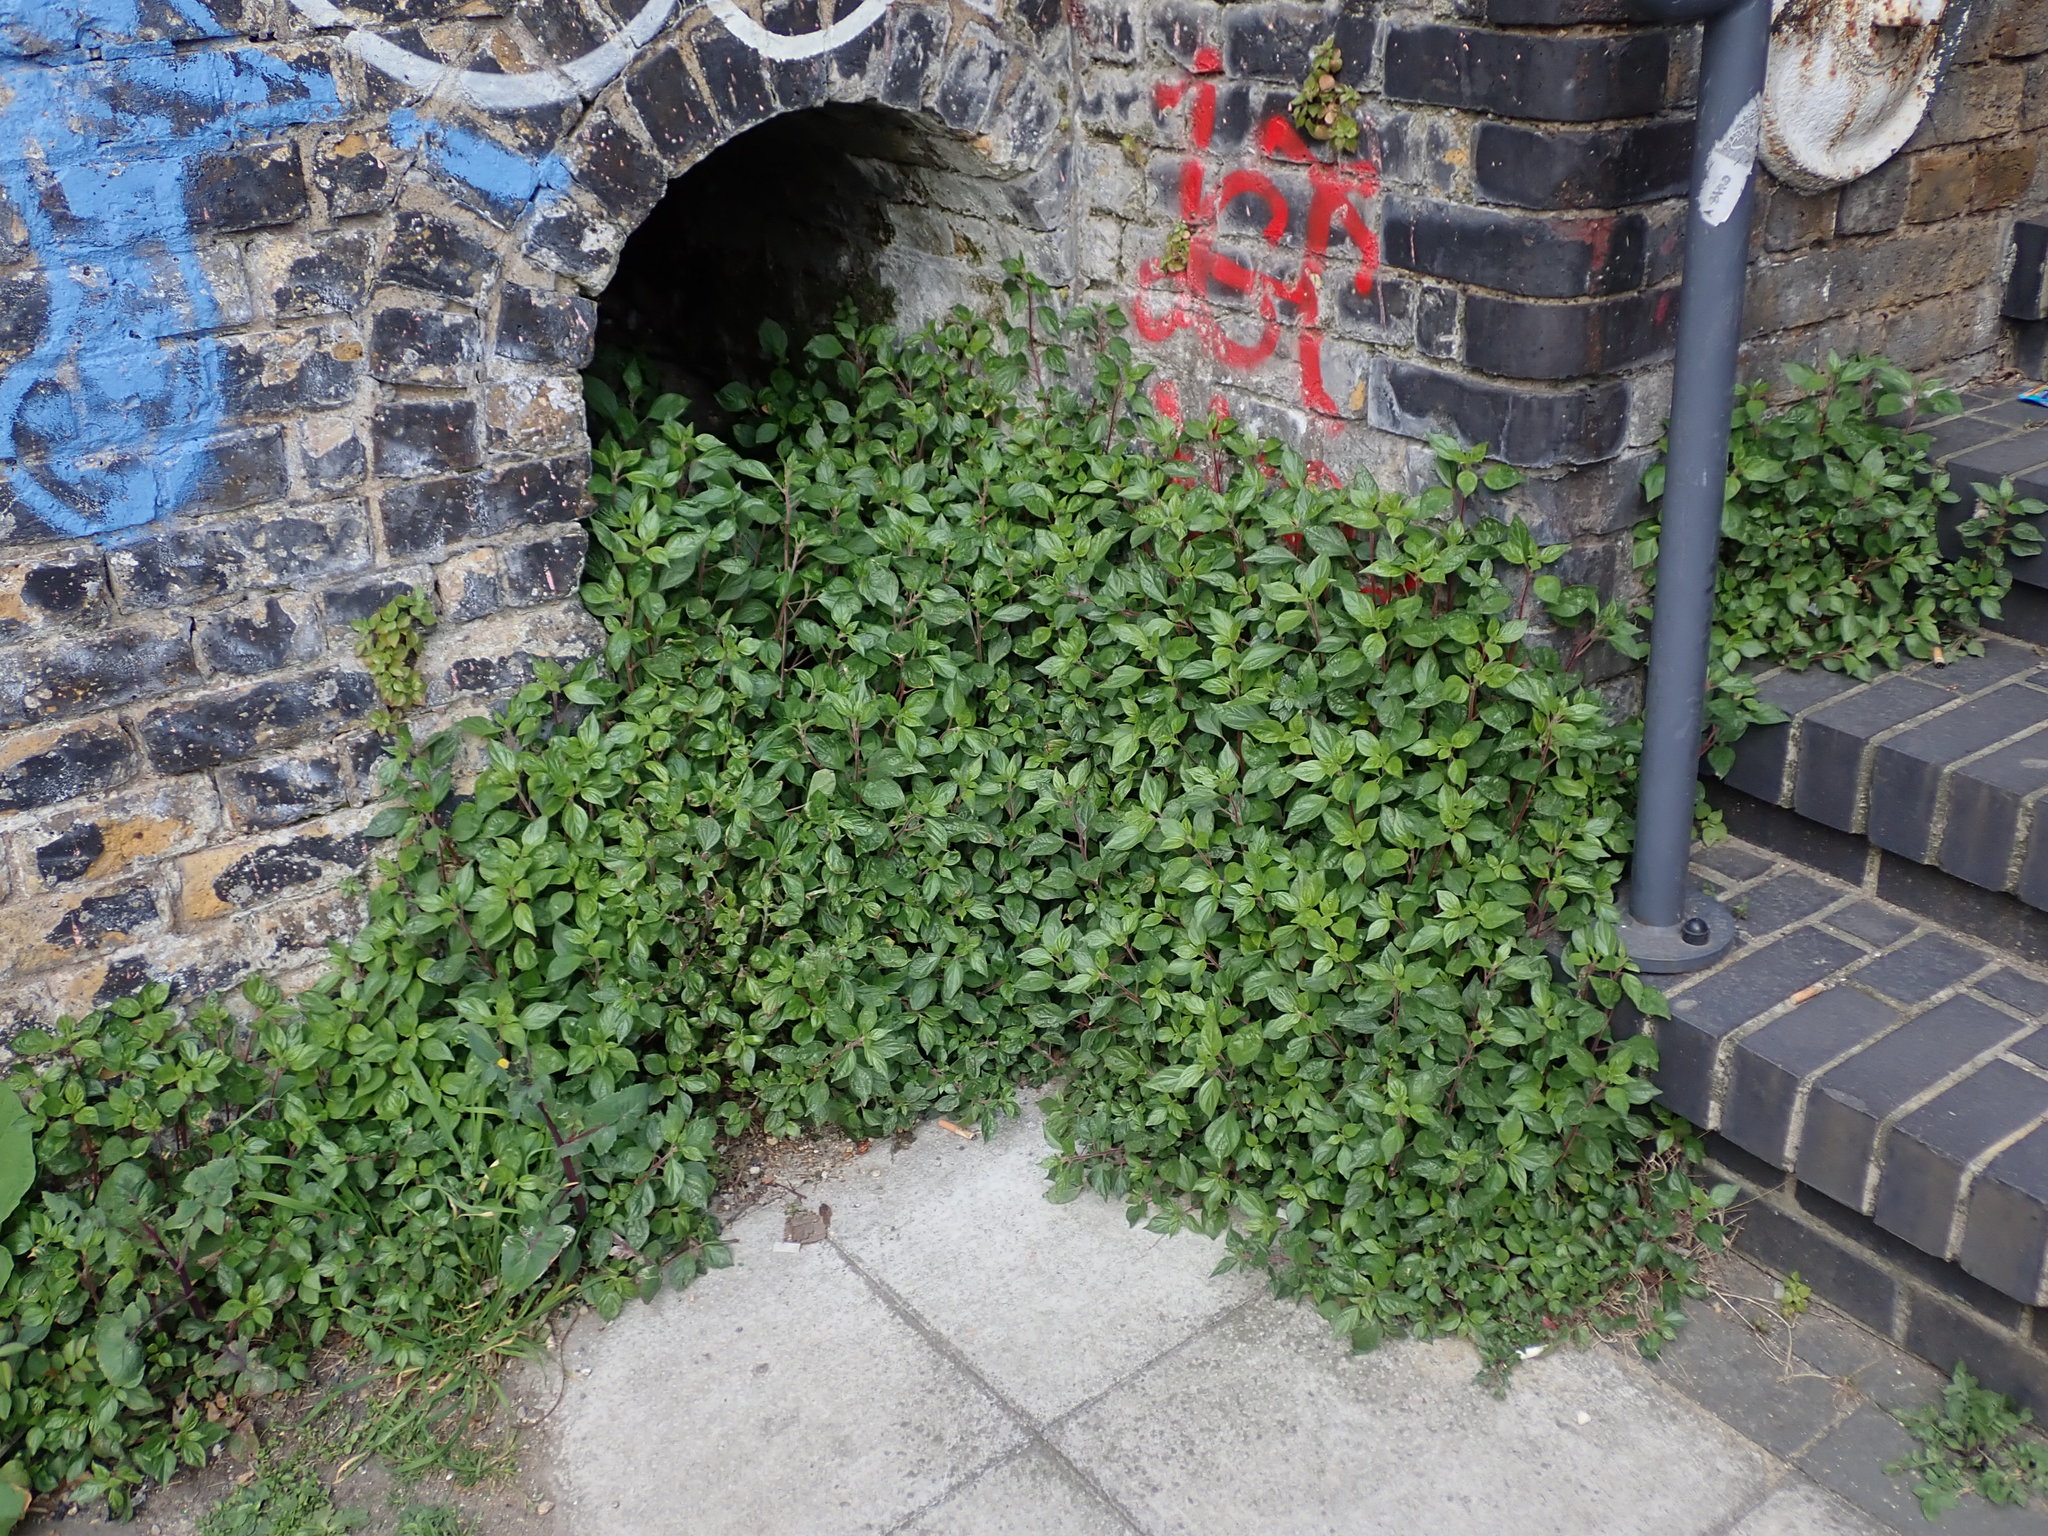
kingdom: Plantae
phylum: Tracheophyta
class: Magnoliopsida
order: Rosales
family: Urticaceae
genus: Parietaria
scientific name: Parietaria judaica
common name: Pellitory-of-the-wall
